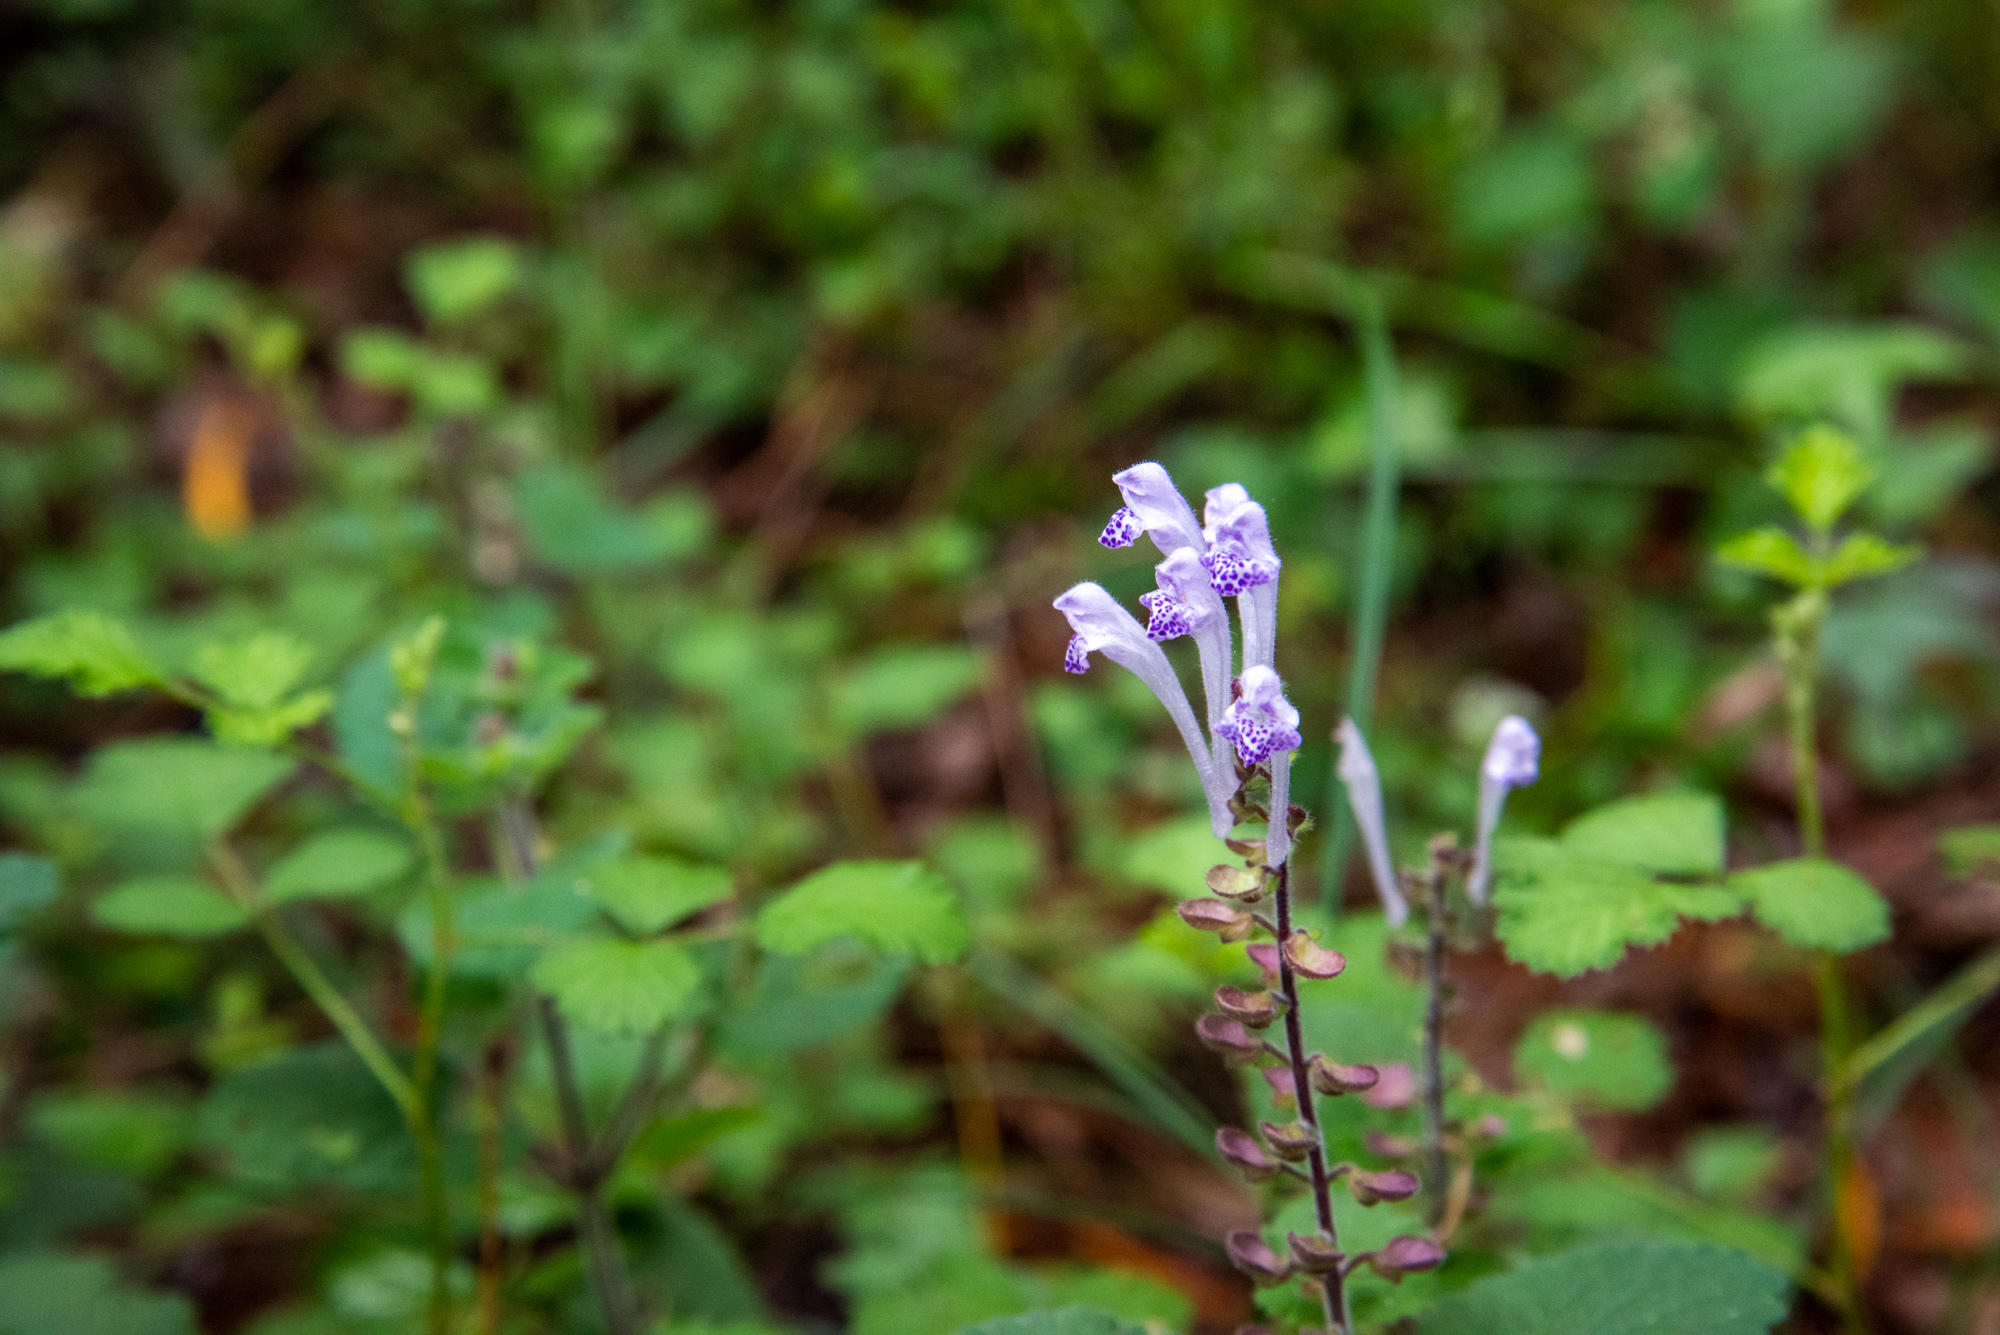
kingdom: Plantae
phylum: Tracheophyta
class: Magnoliopsida
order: Lamiales
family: Lamiaceae
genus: Scutellaria
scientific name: Scutellaria indica
